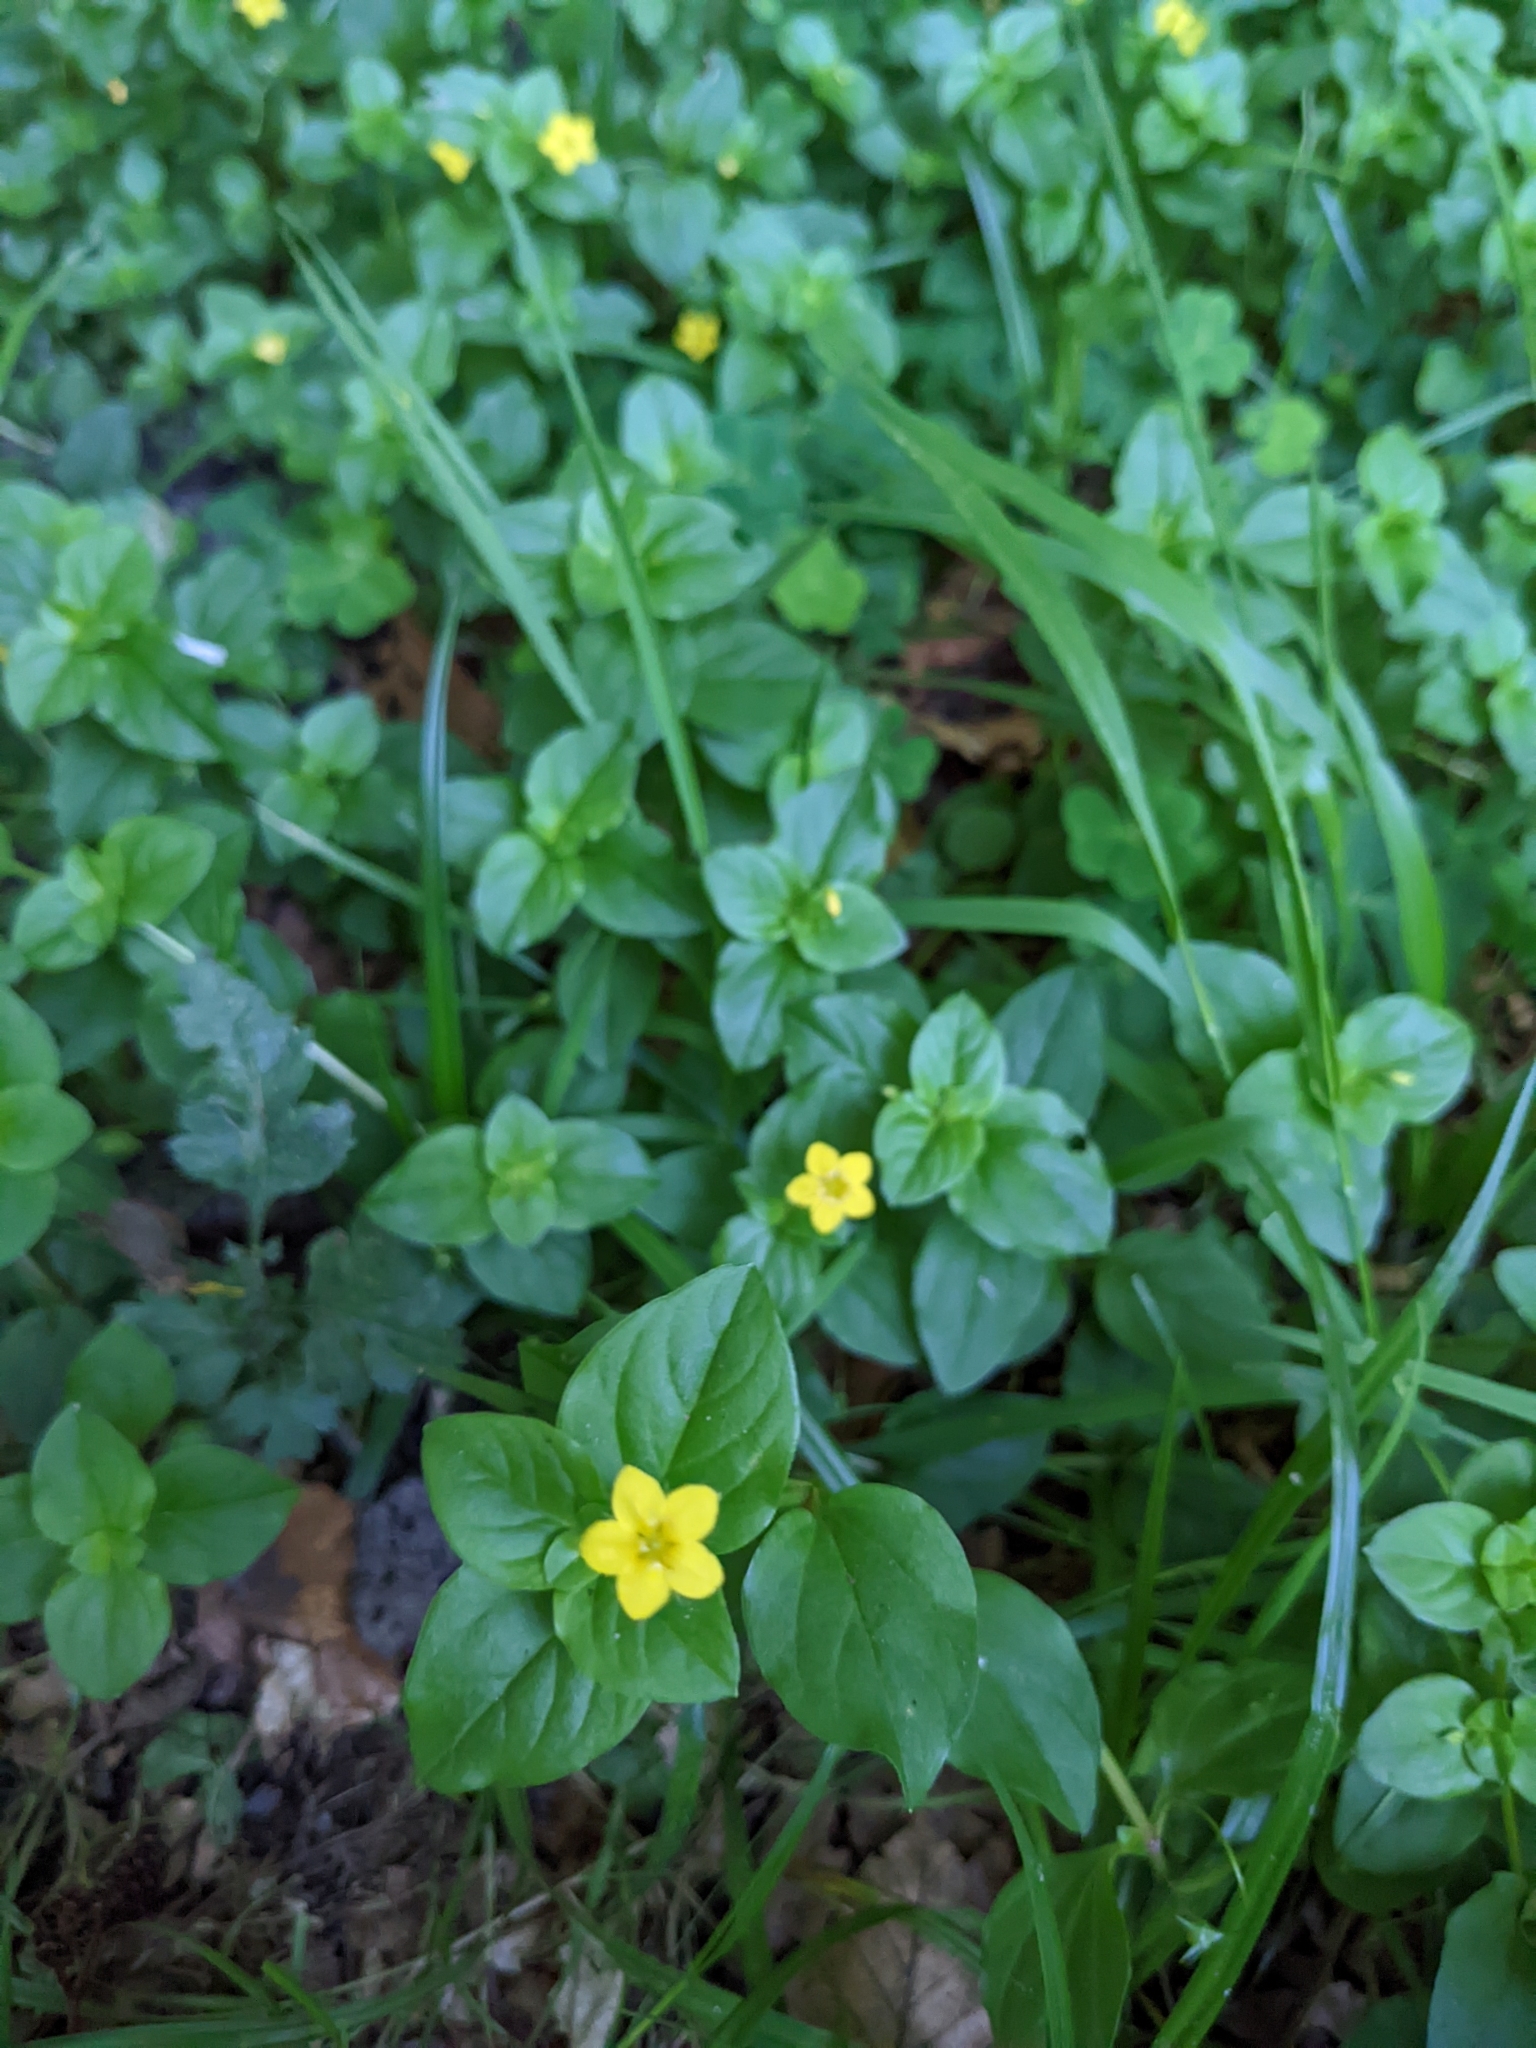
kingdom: Plantae
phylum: Tracheophyta
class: Magnoliopsida
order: Ericales
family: Primulaceae
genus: Lysimachia
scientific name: Lysimachia nemorum
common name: Yellow pimpernel
